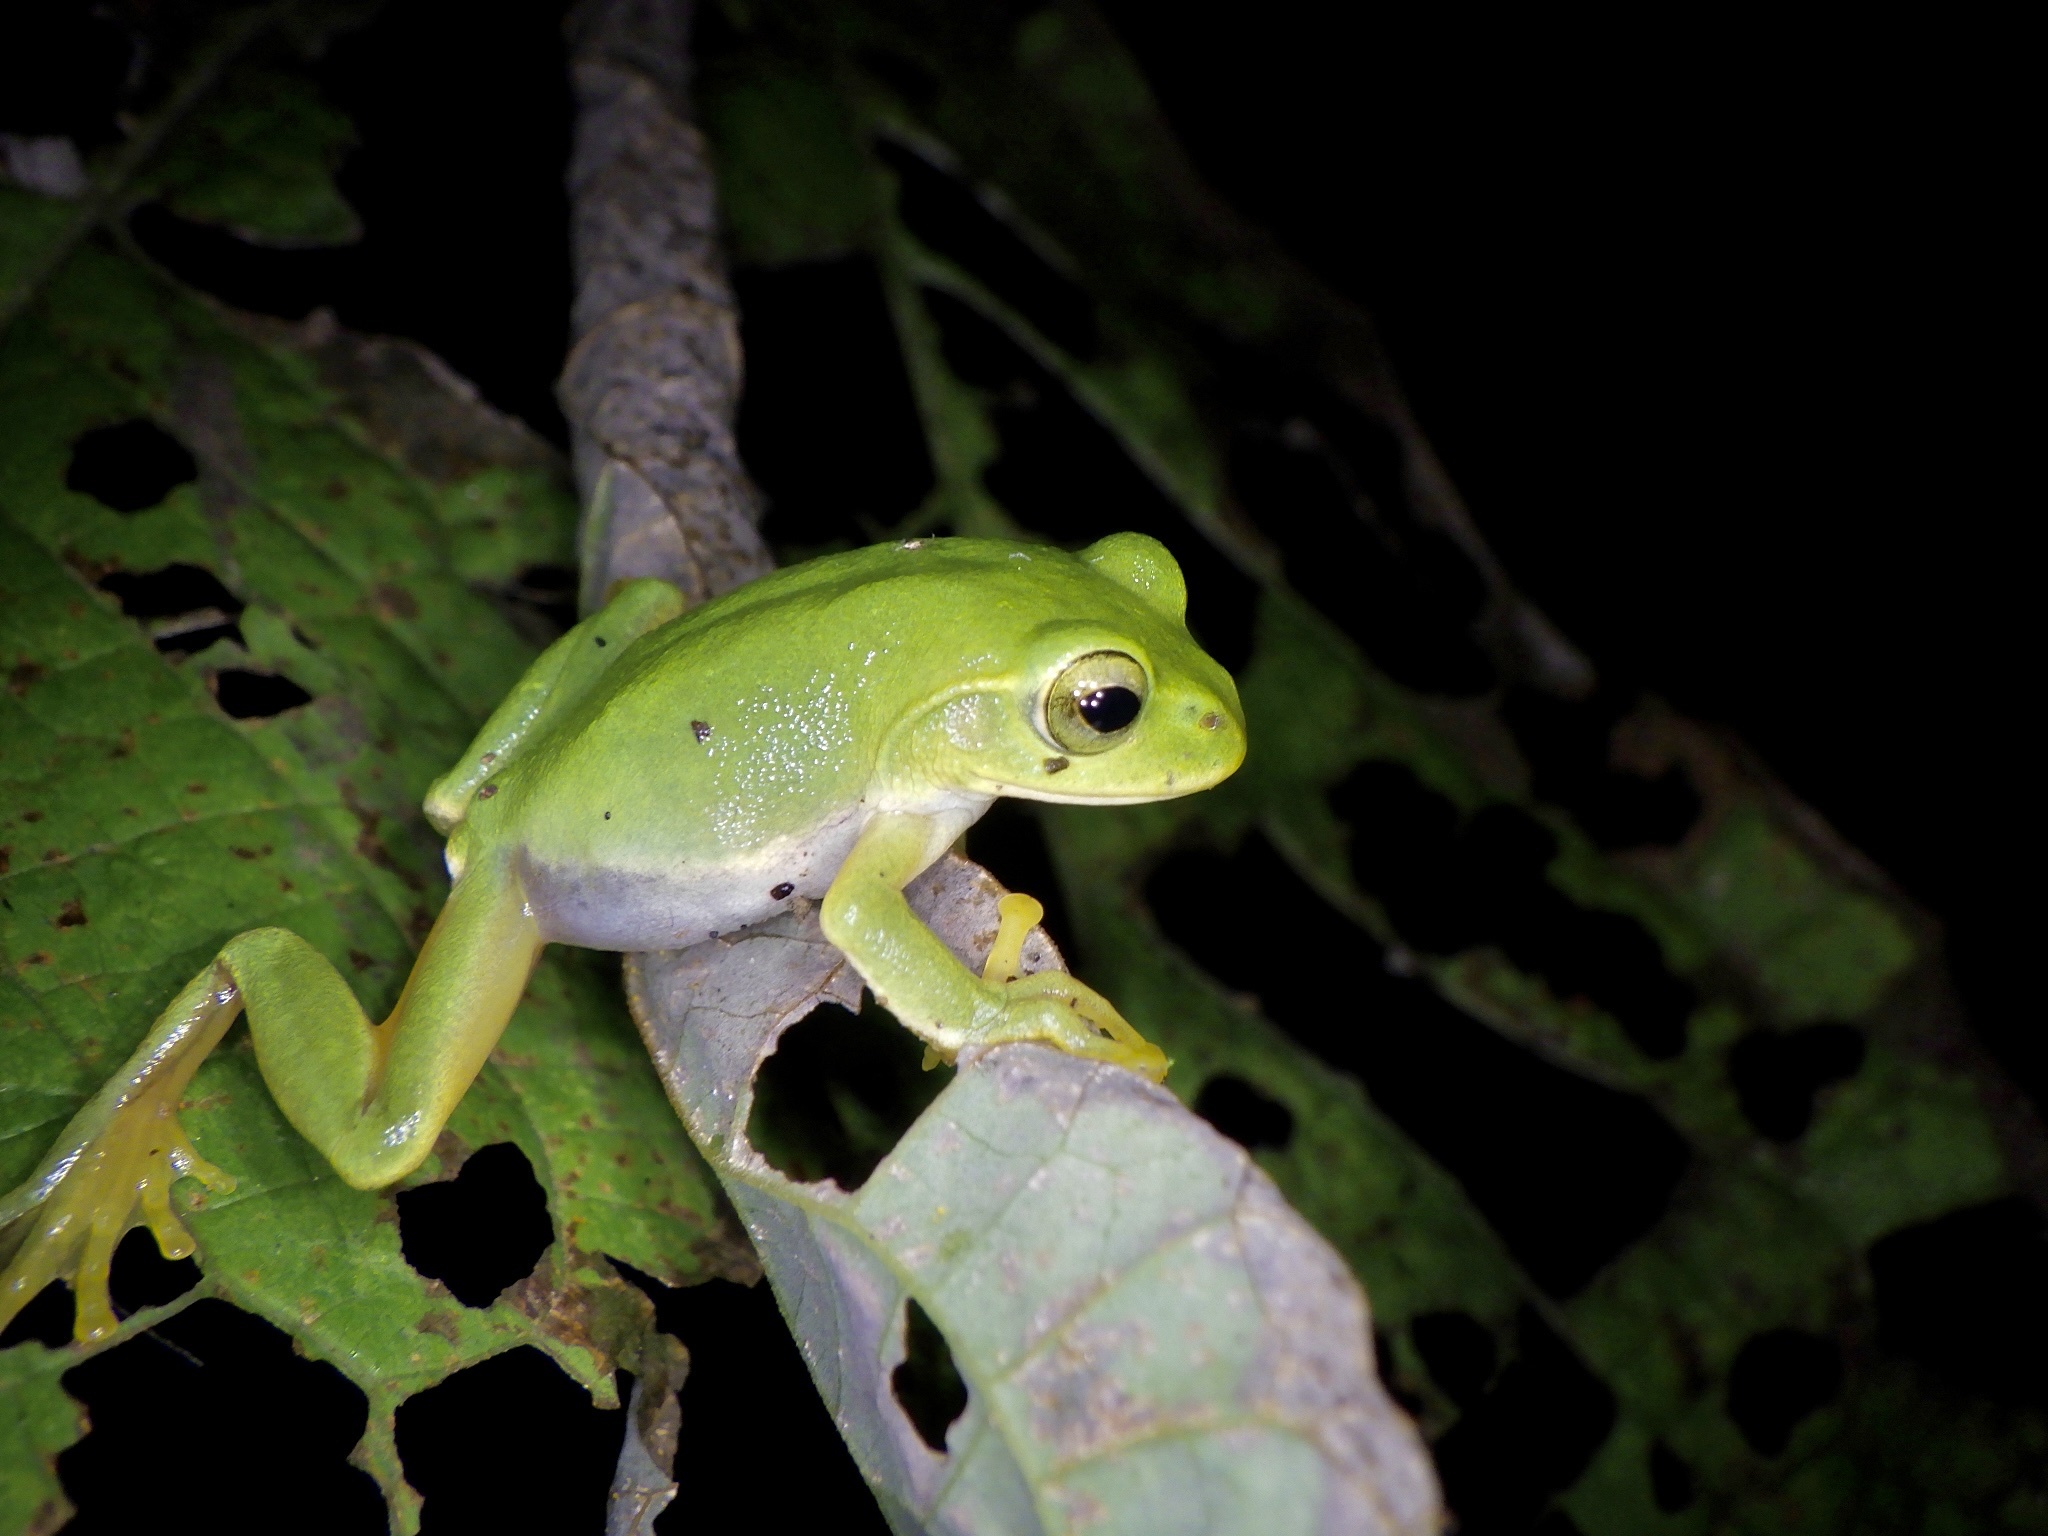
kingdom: Animalia
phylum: Chordata
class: Amphibia
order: Anura
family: Rhacophoridae
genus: Zhangixalus
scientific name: Zhangixalus schlegelii
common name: Japanese gliding frog
